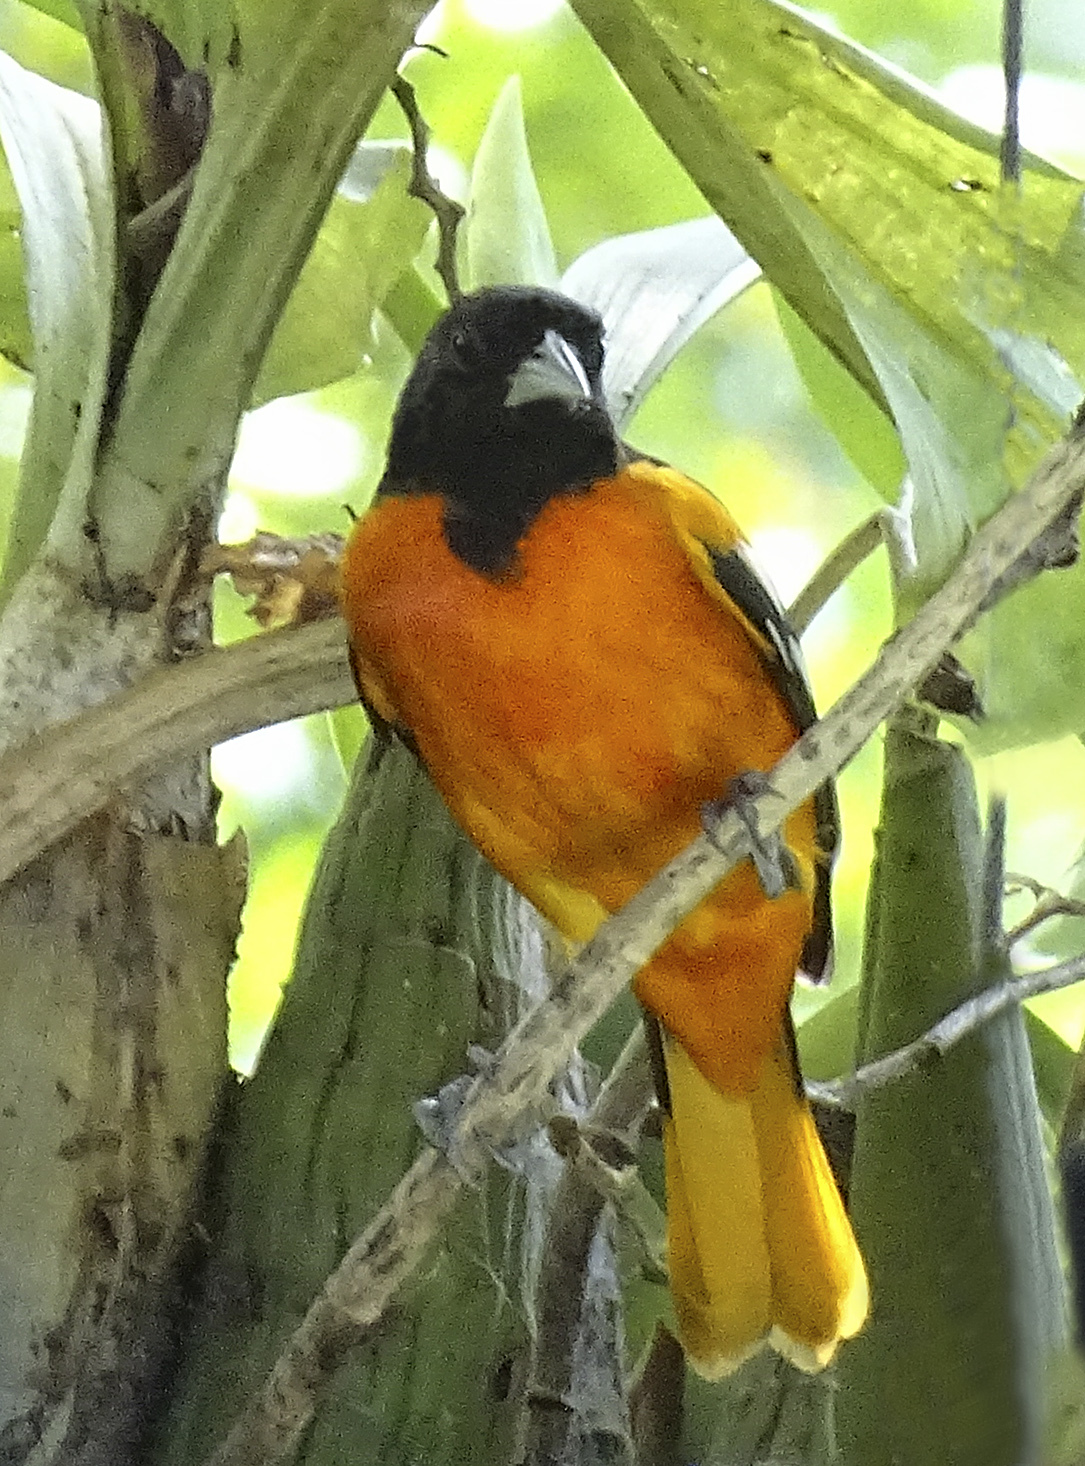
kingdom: Animalia
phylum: Chordata
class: Aves
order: Passeriformes
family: Icteridae
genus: Icterus
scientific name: Icterus galbula
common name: Baltimore oriole
